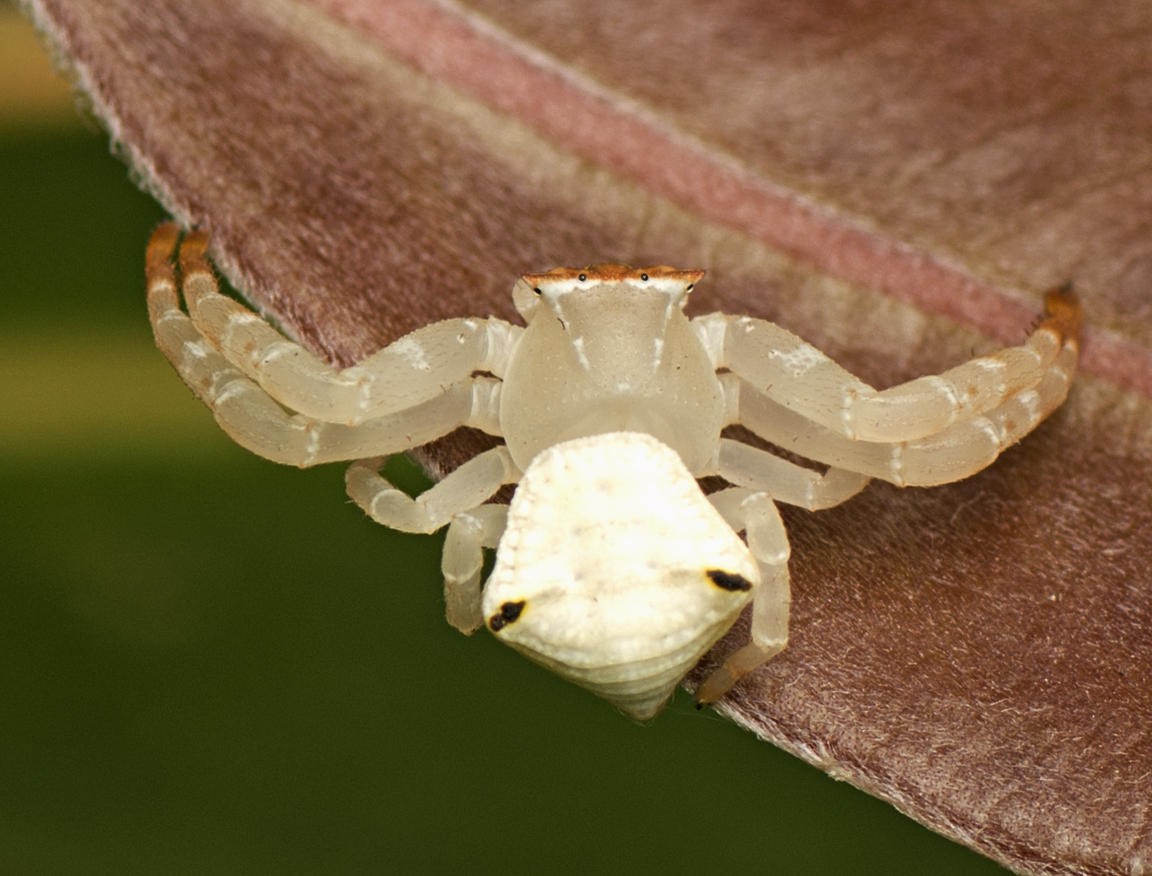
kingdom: Animalia
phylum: Arthropoda
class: Arachnida
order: Araneae
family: Thomisidae
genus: Thomisus
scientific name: Thomisus spectabilis
